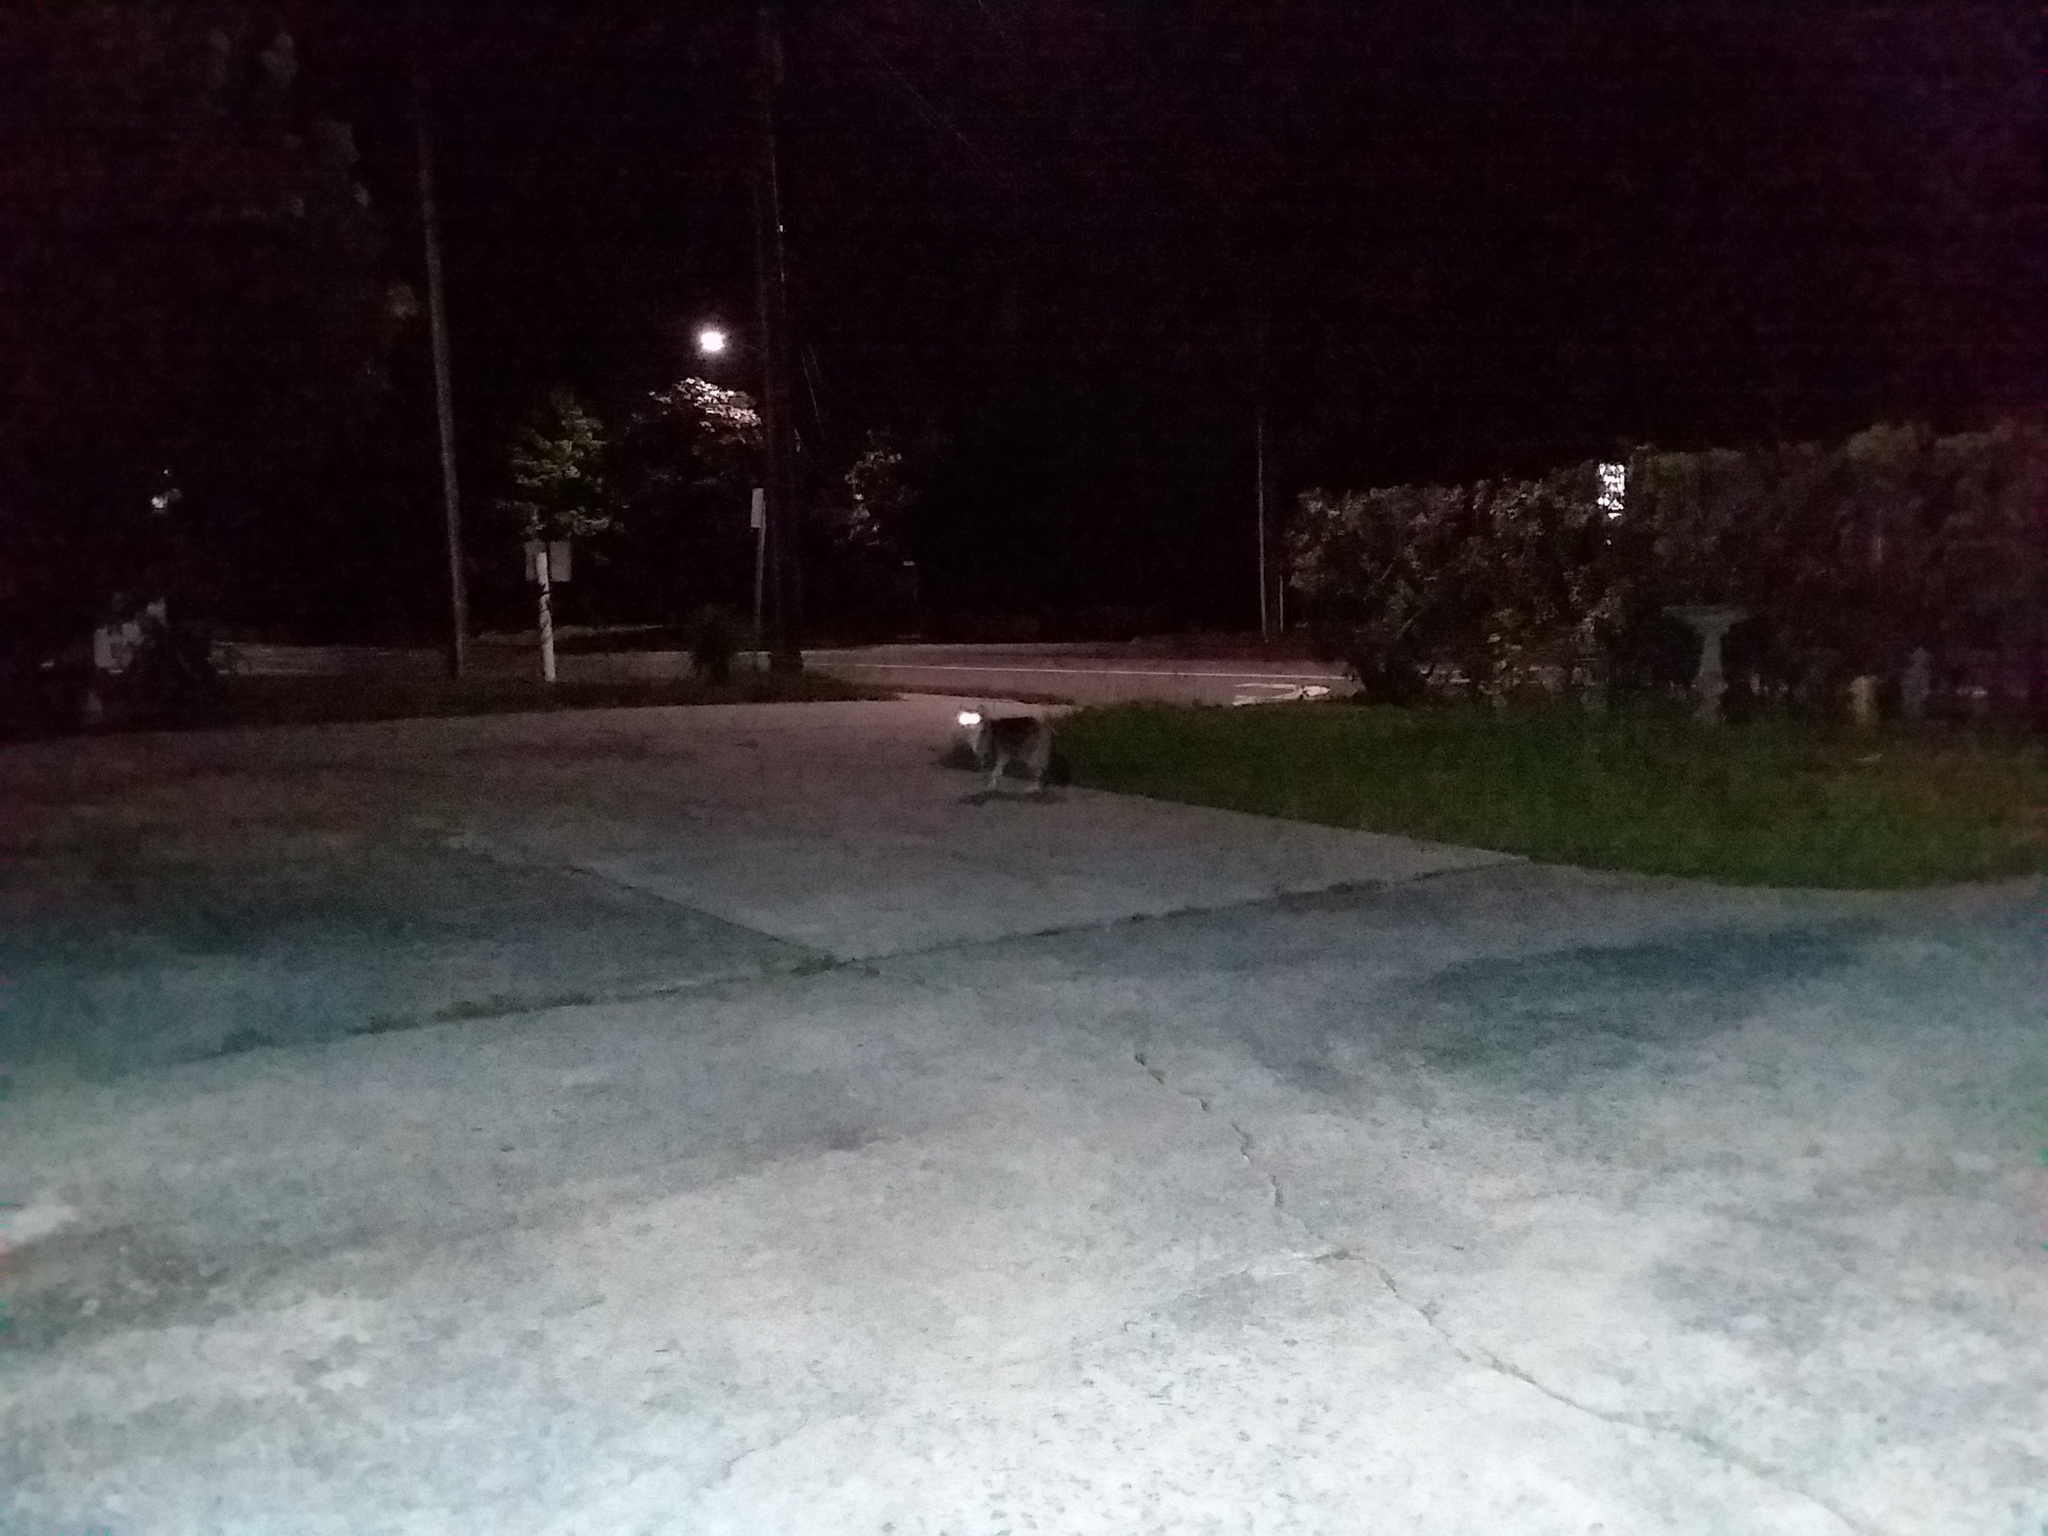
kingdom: Animalia
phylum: Chordata
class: Mammalia
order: Carnivora
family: Felidae
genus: Felis
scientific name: Felis catus
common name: Domestic cat
